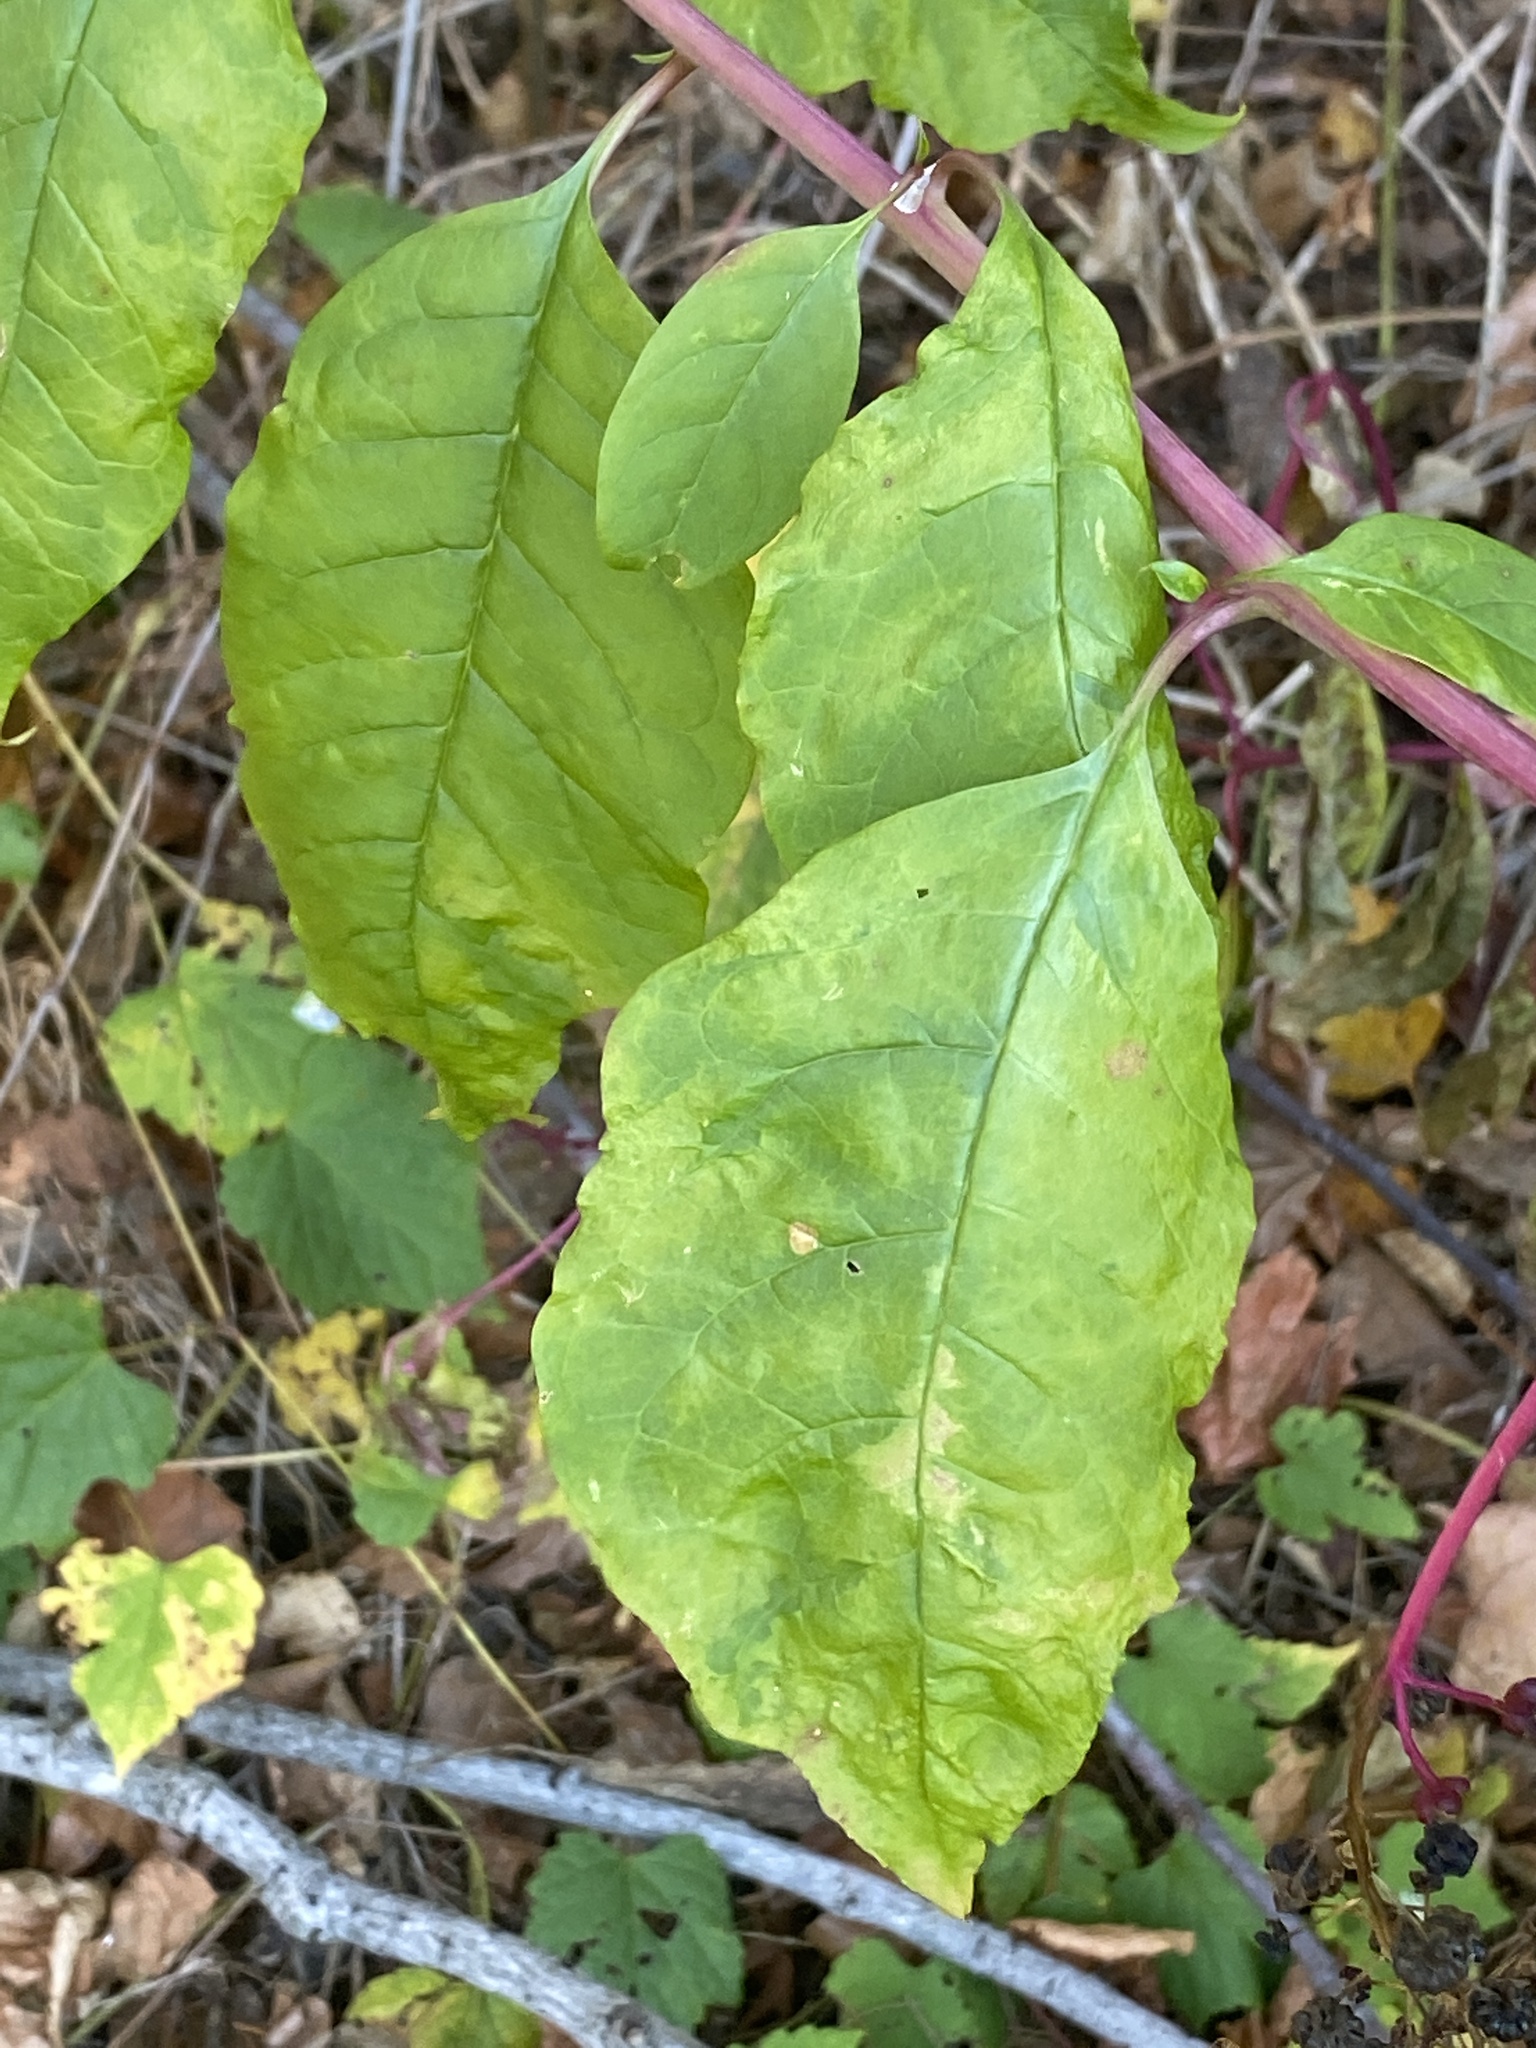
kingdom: Viruses
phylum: Pisuviricota
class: Stelpaviricetes
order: Patatavirales
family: Potyviridae
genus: Potyvirus
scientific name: Potyvirus Pokeweed mosaic virus
